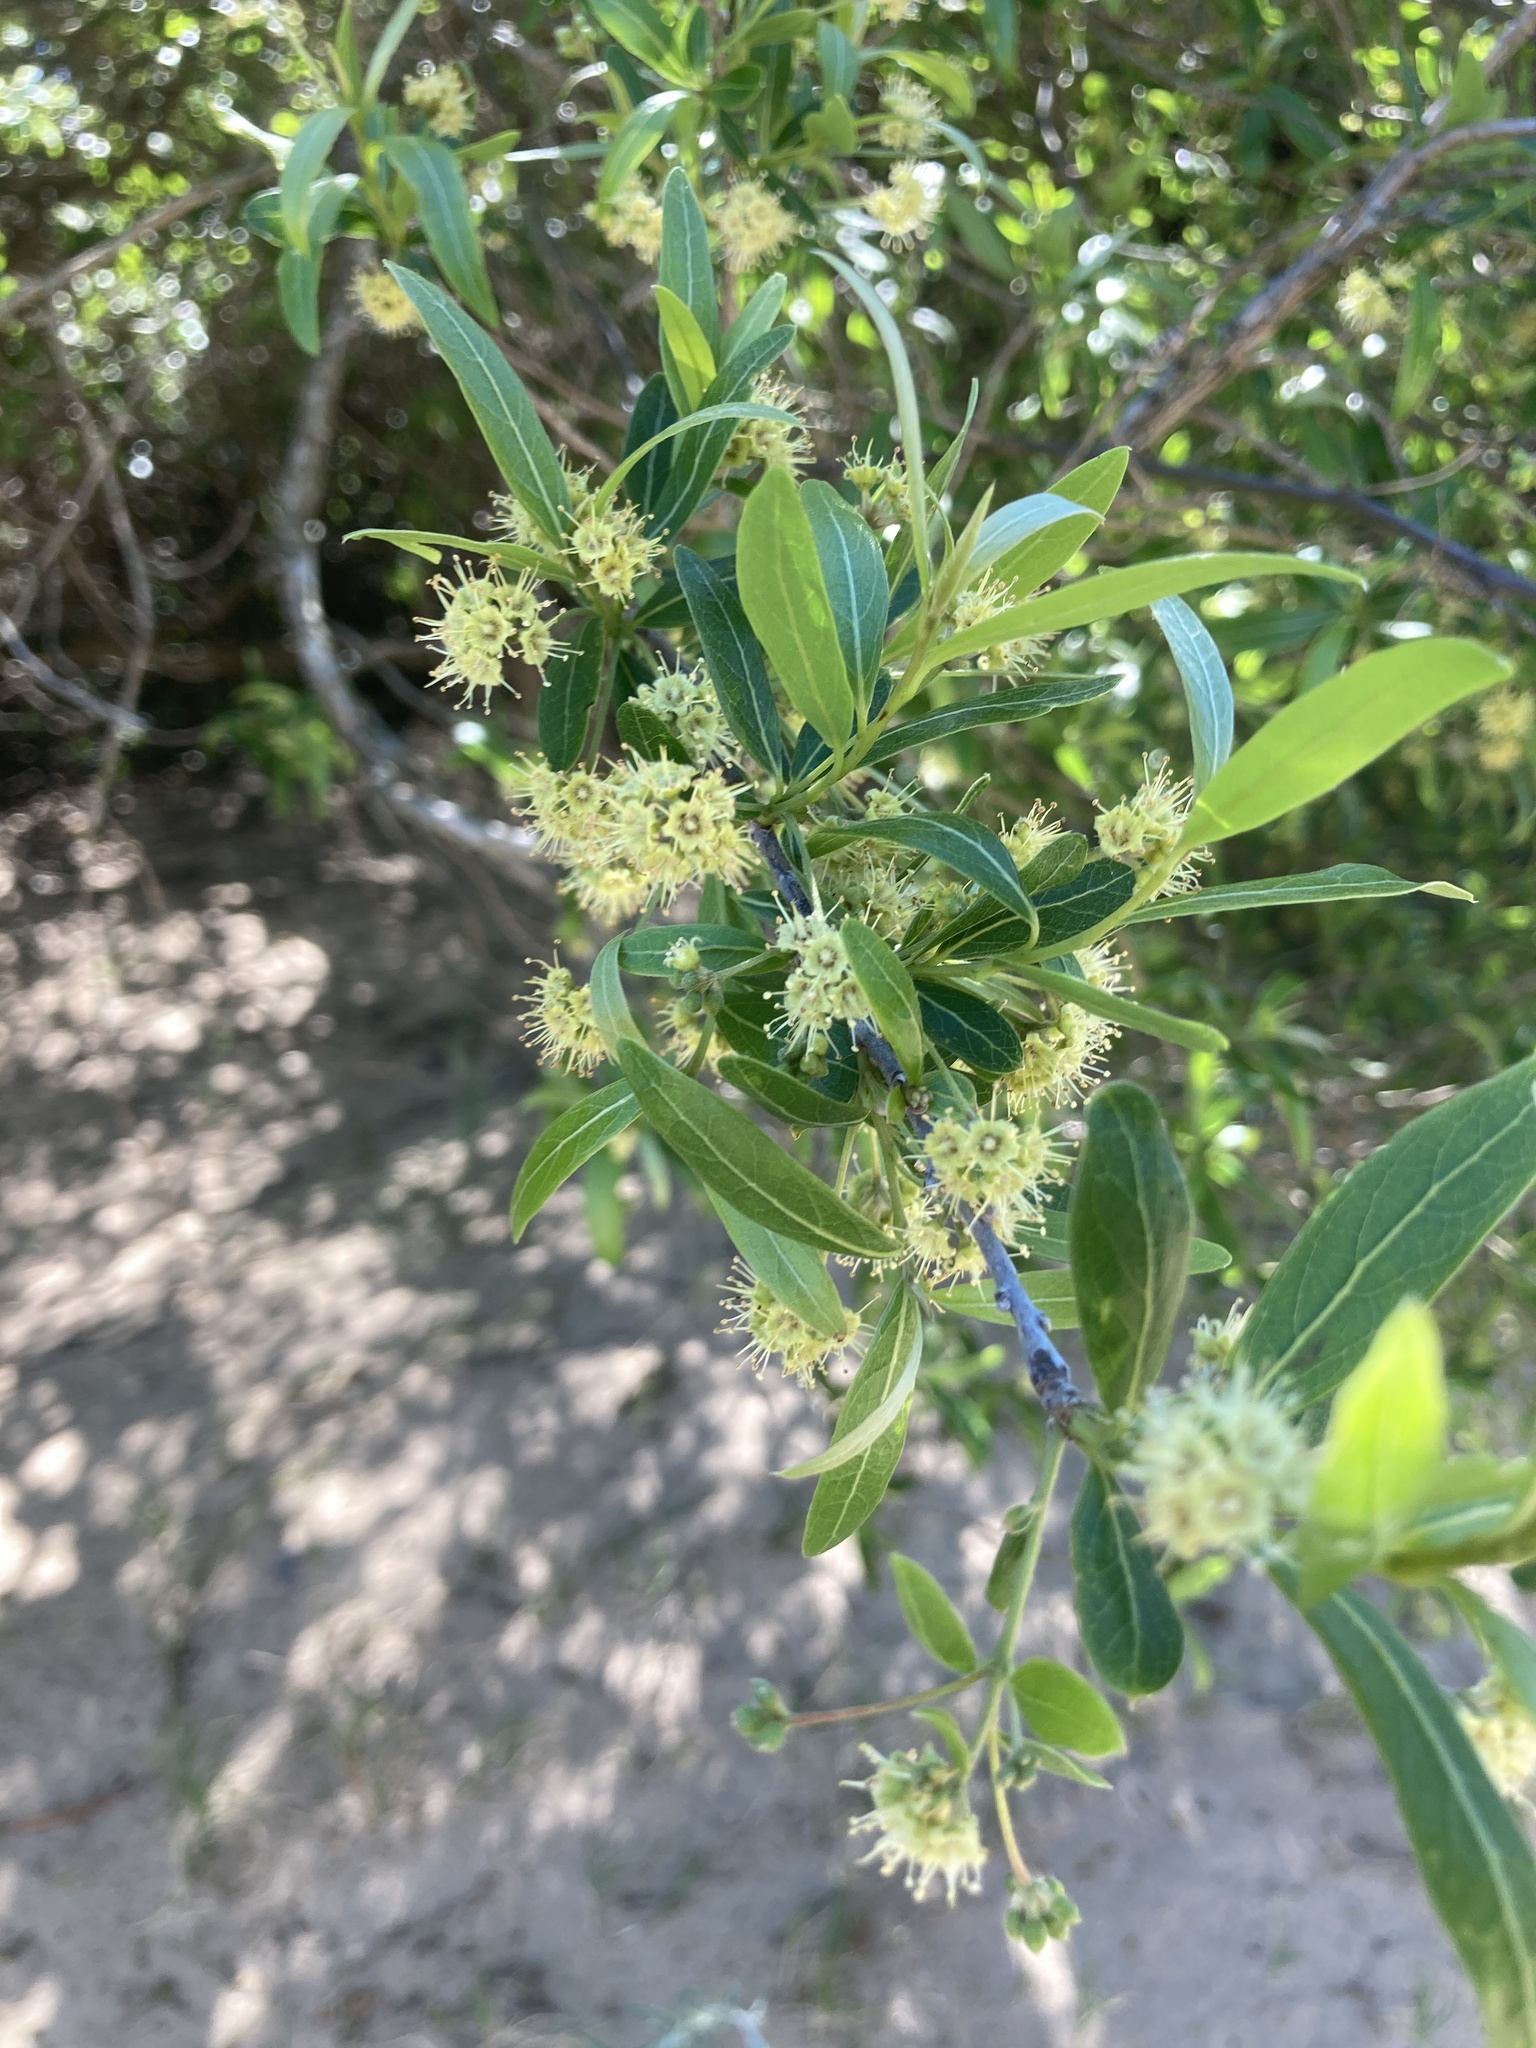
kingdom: Plantae
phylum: Tracheophyta
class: Magnoliopsida
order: Myrtales
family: Combretaceae
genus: Terminalia
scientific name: Terminalia australis
